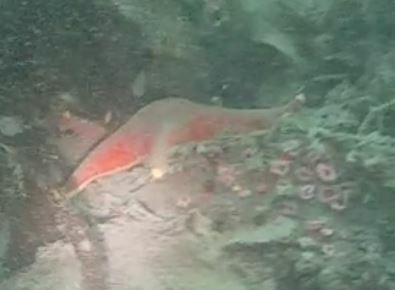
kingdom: Animalia
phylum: Echinodermata
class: Asteroidea
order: Valvatida
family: Asterinidae
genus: Patiria
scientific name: Patiria miniata
